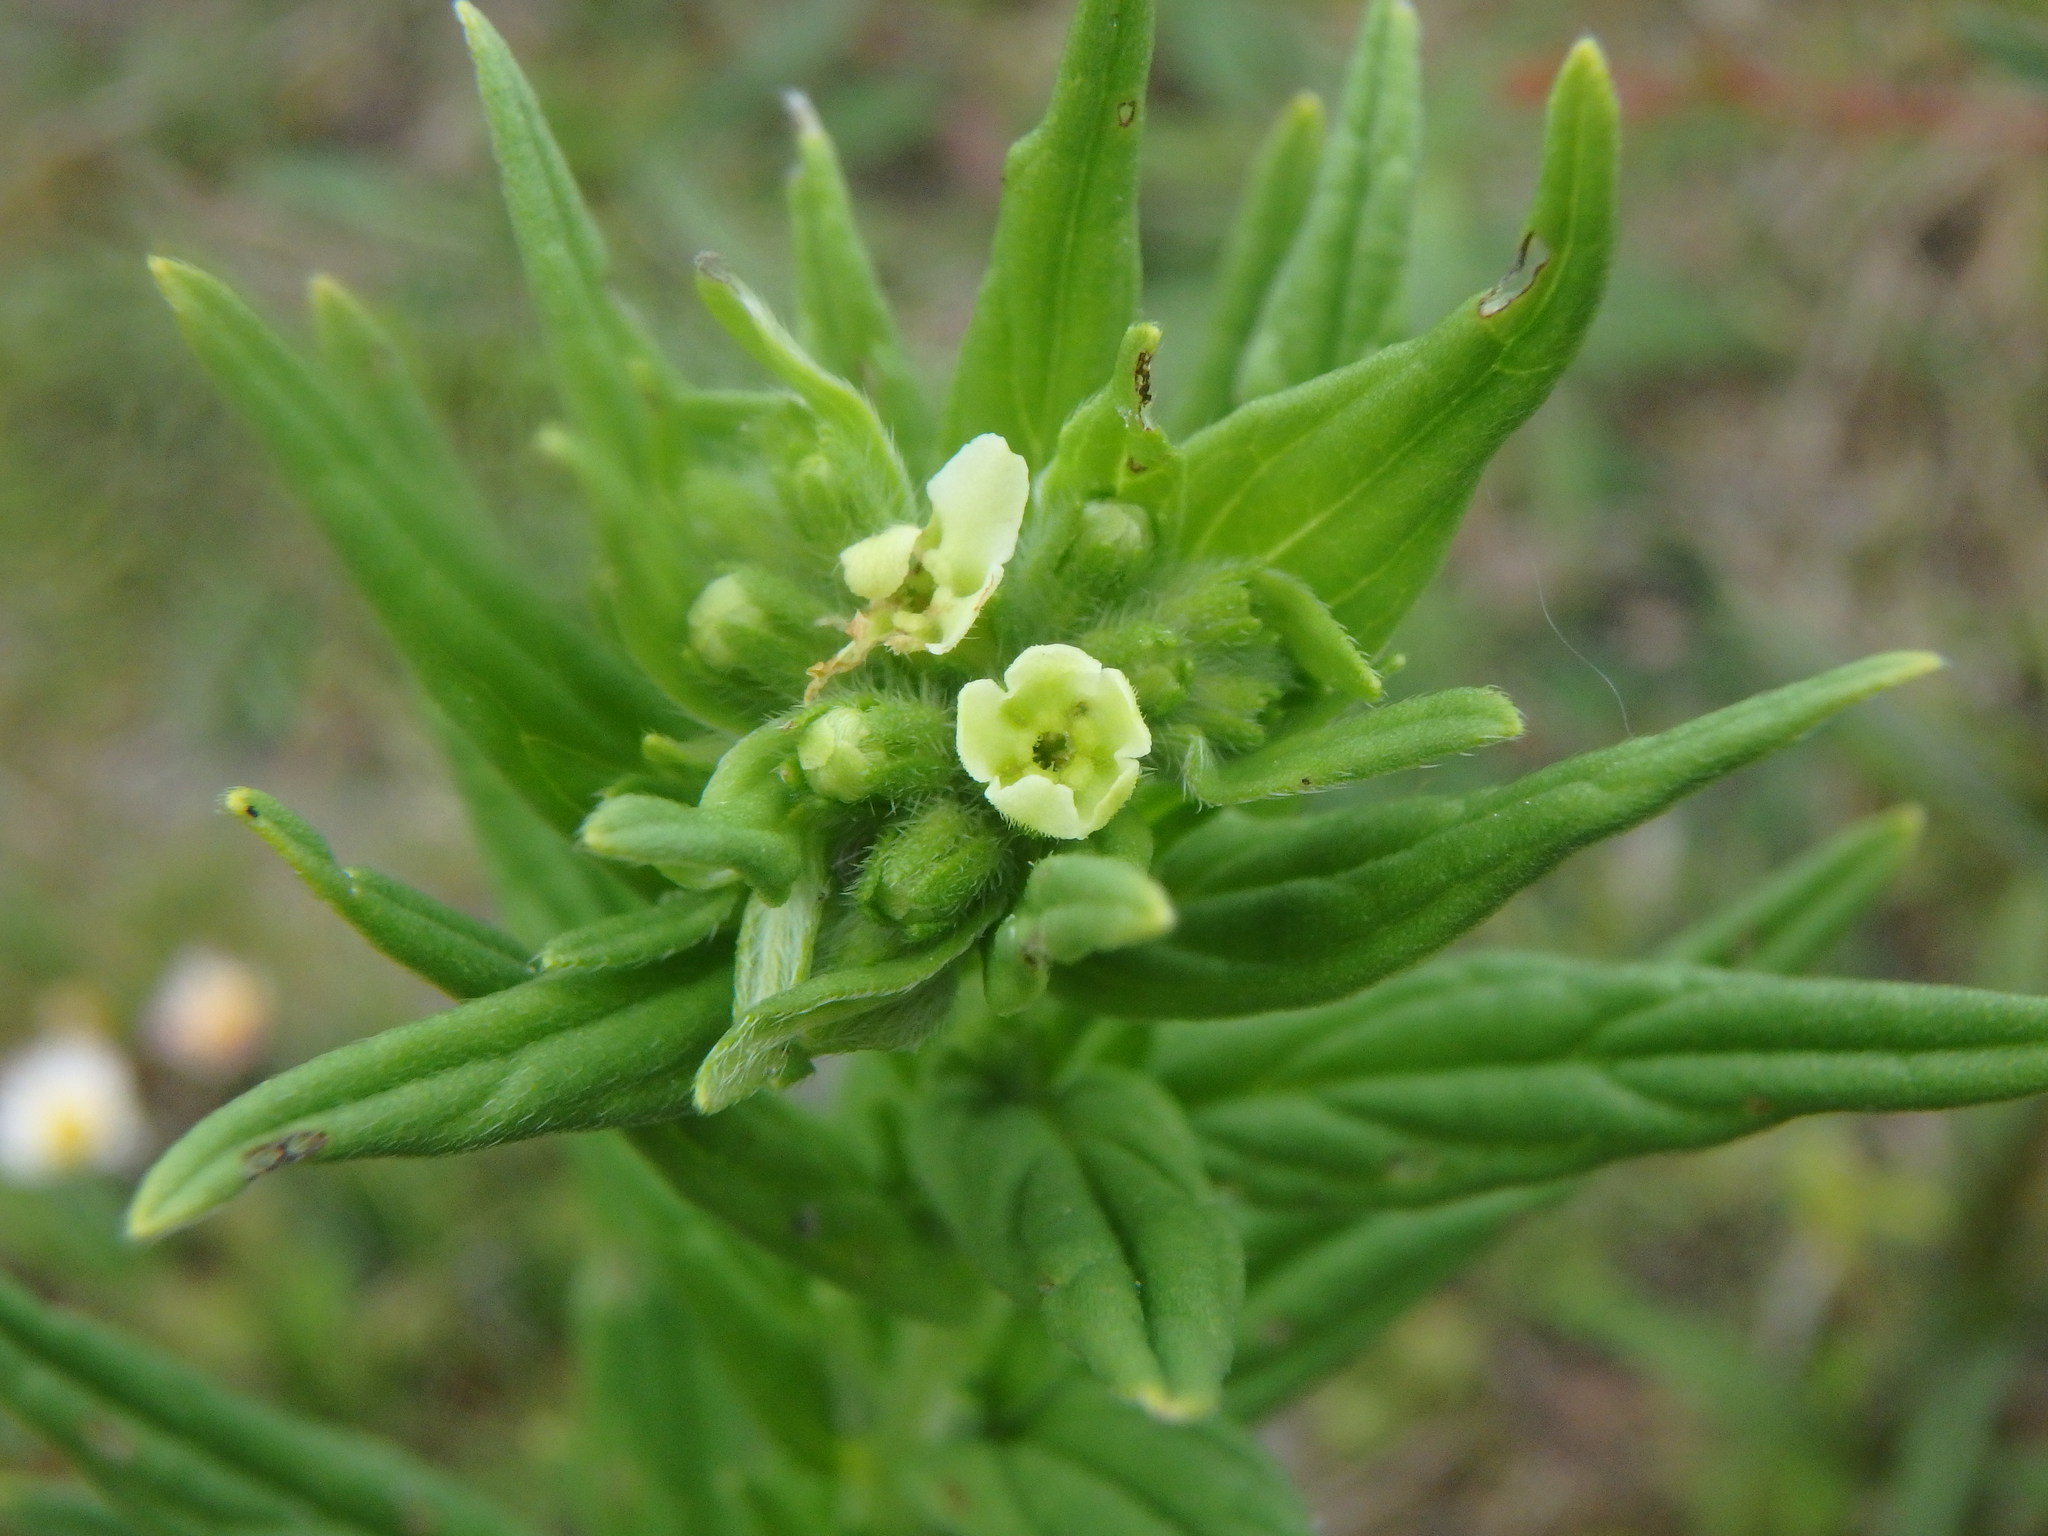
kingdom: Plantae
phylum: Tracheophyta
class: Magnoliopsida
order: Boraginales
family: Boraginaceae
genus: Lithospermum
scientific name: Lithospermum officinale
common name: Common gromwell
